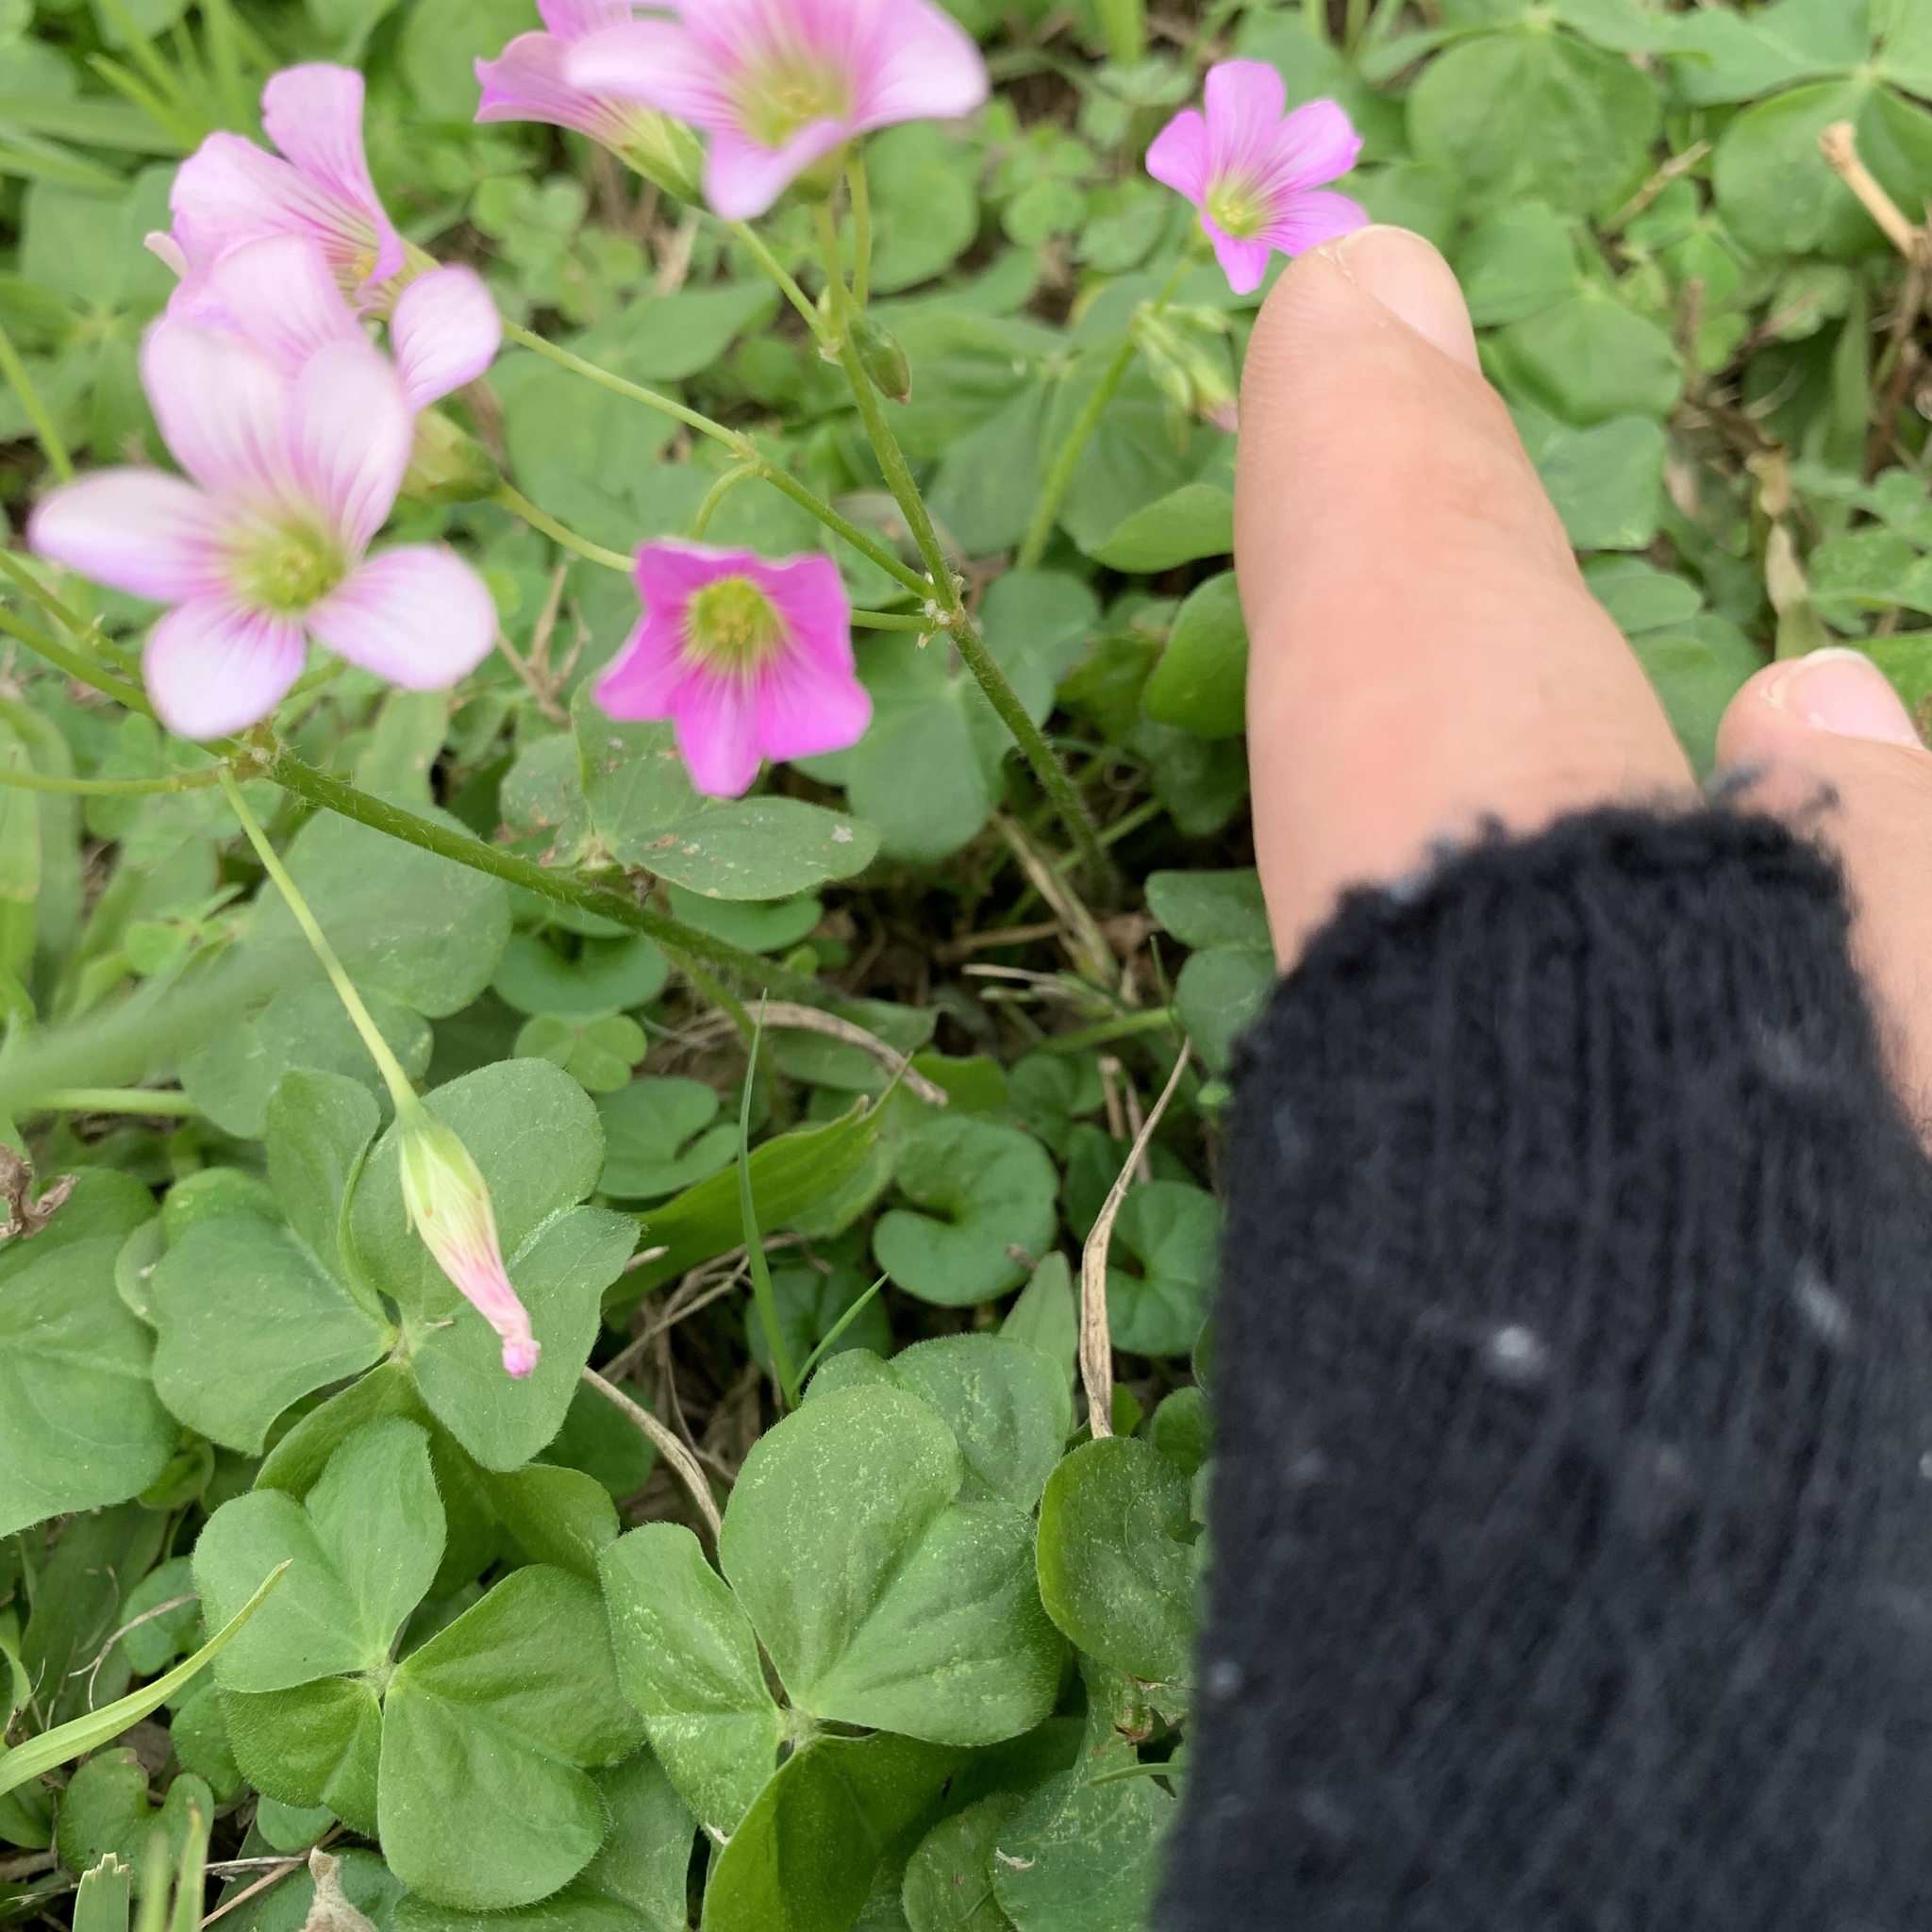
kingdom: Plantae
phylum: Tracheophyta
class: Magnoliopsida
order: Oxalidales
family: Oxalidaceae
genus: Oxalis
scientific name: Oxalis debilis
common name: Large-flowered pink-sorrel
